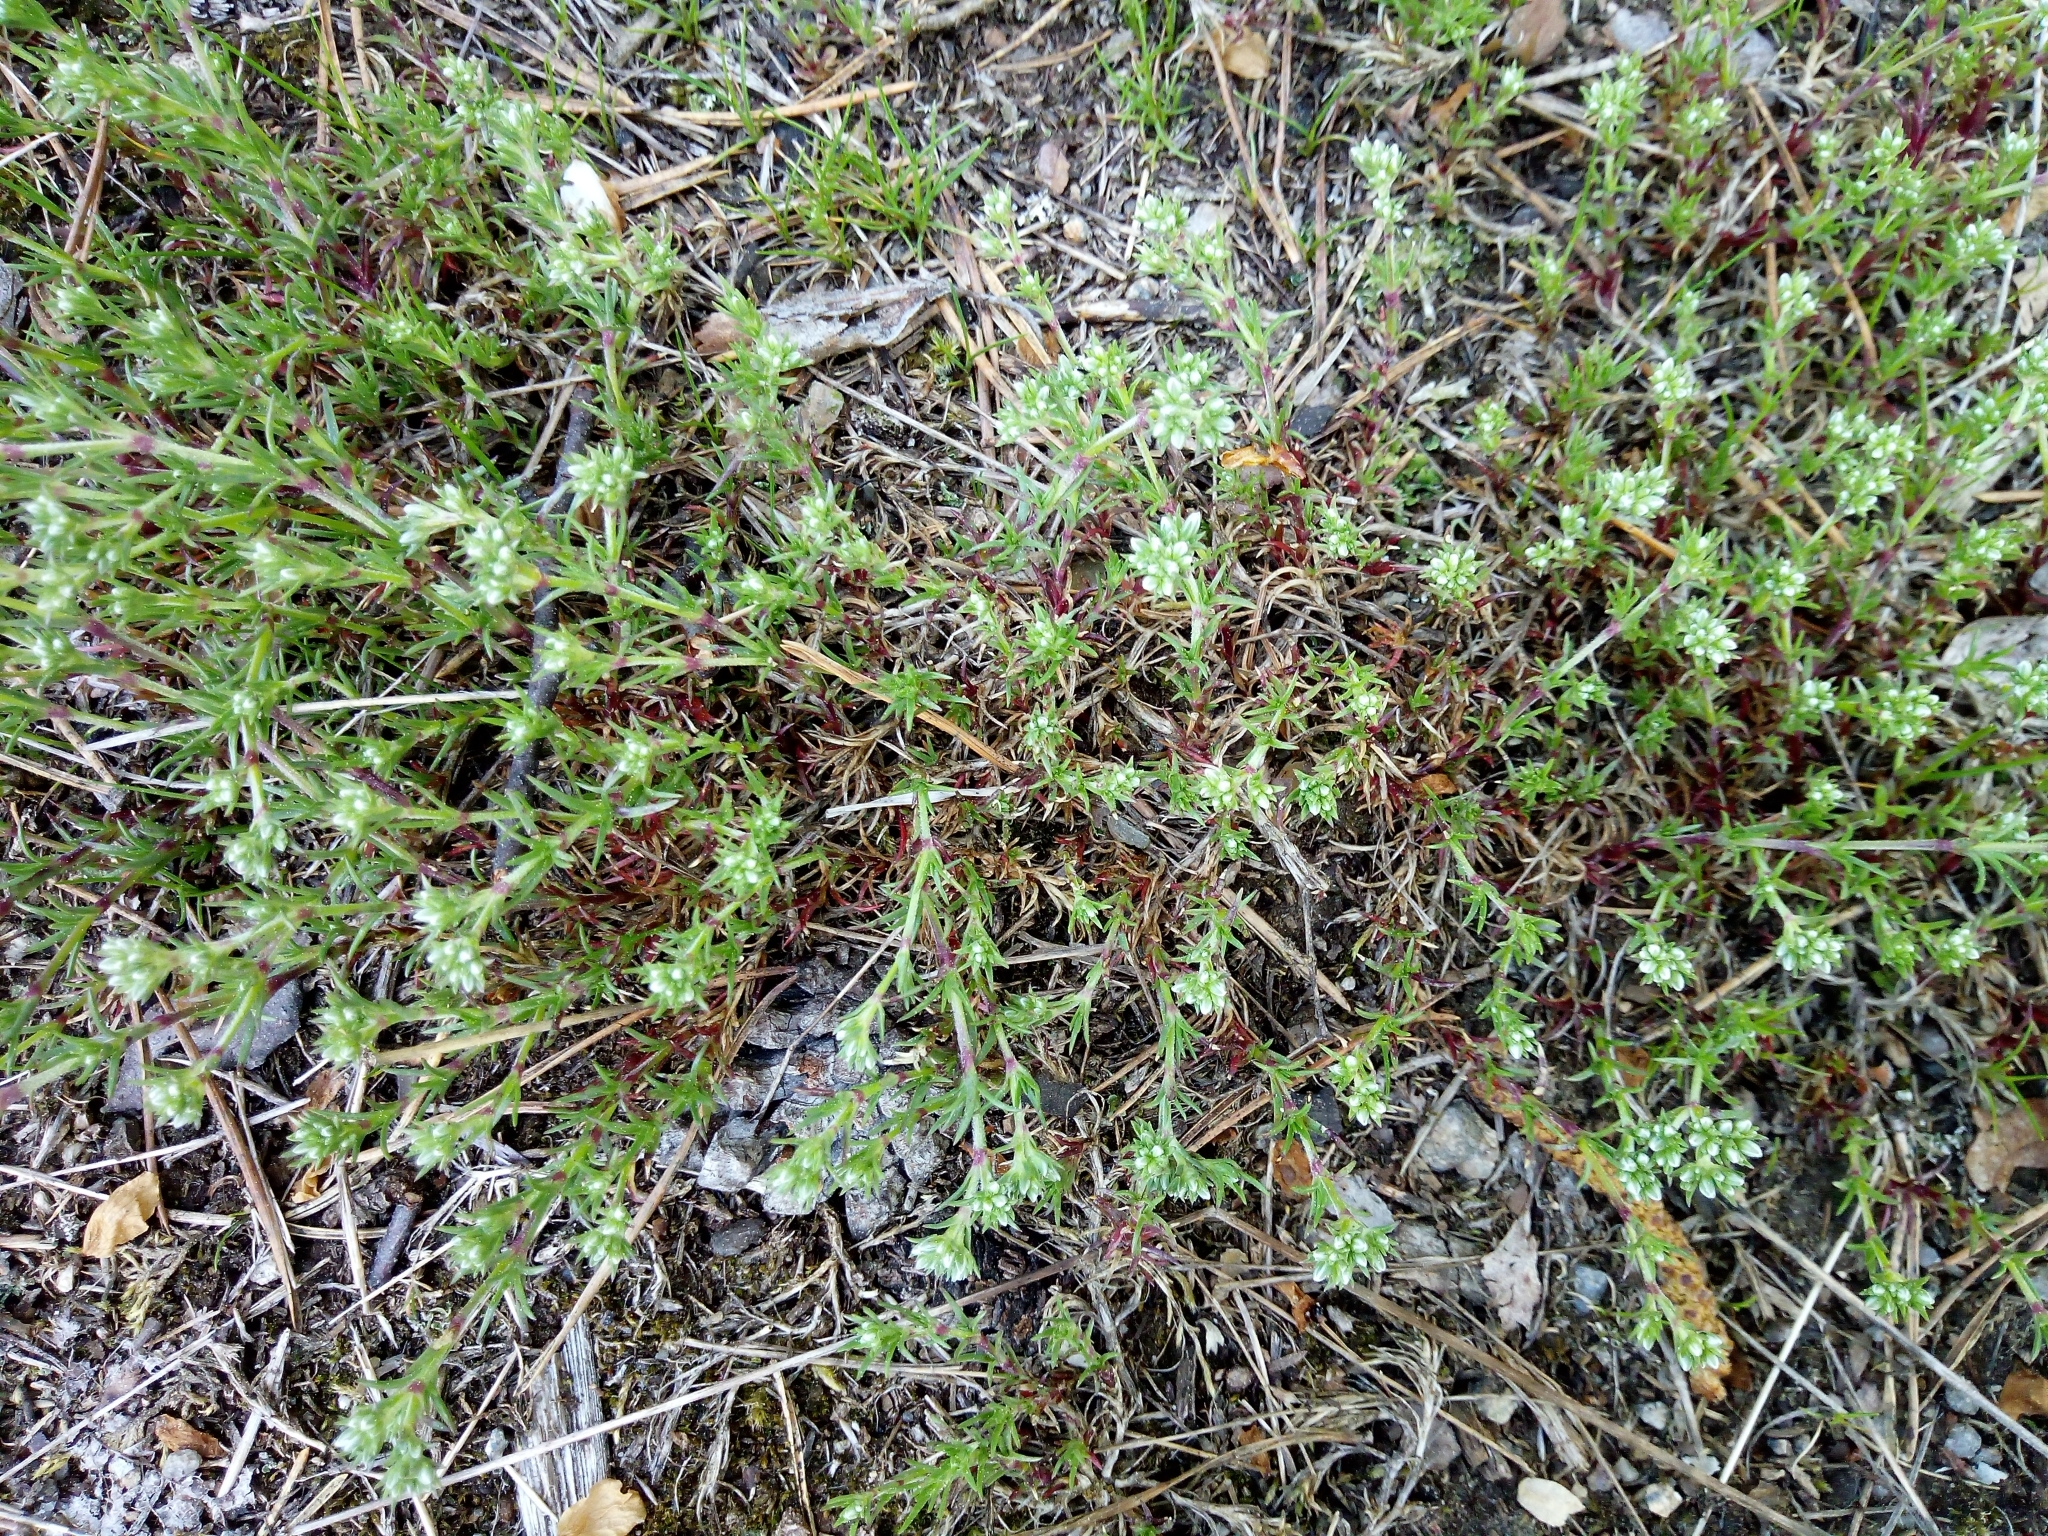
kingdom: Plantae
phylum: Tracheophyta
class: Magnoliopsida
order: Caryophyllales
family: Caryophyllaceae
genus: Scleranthus
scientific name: Scleranthus perennis
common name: Perennial knawel
